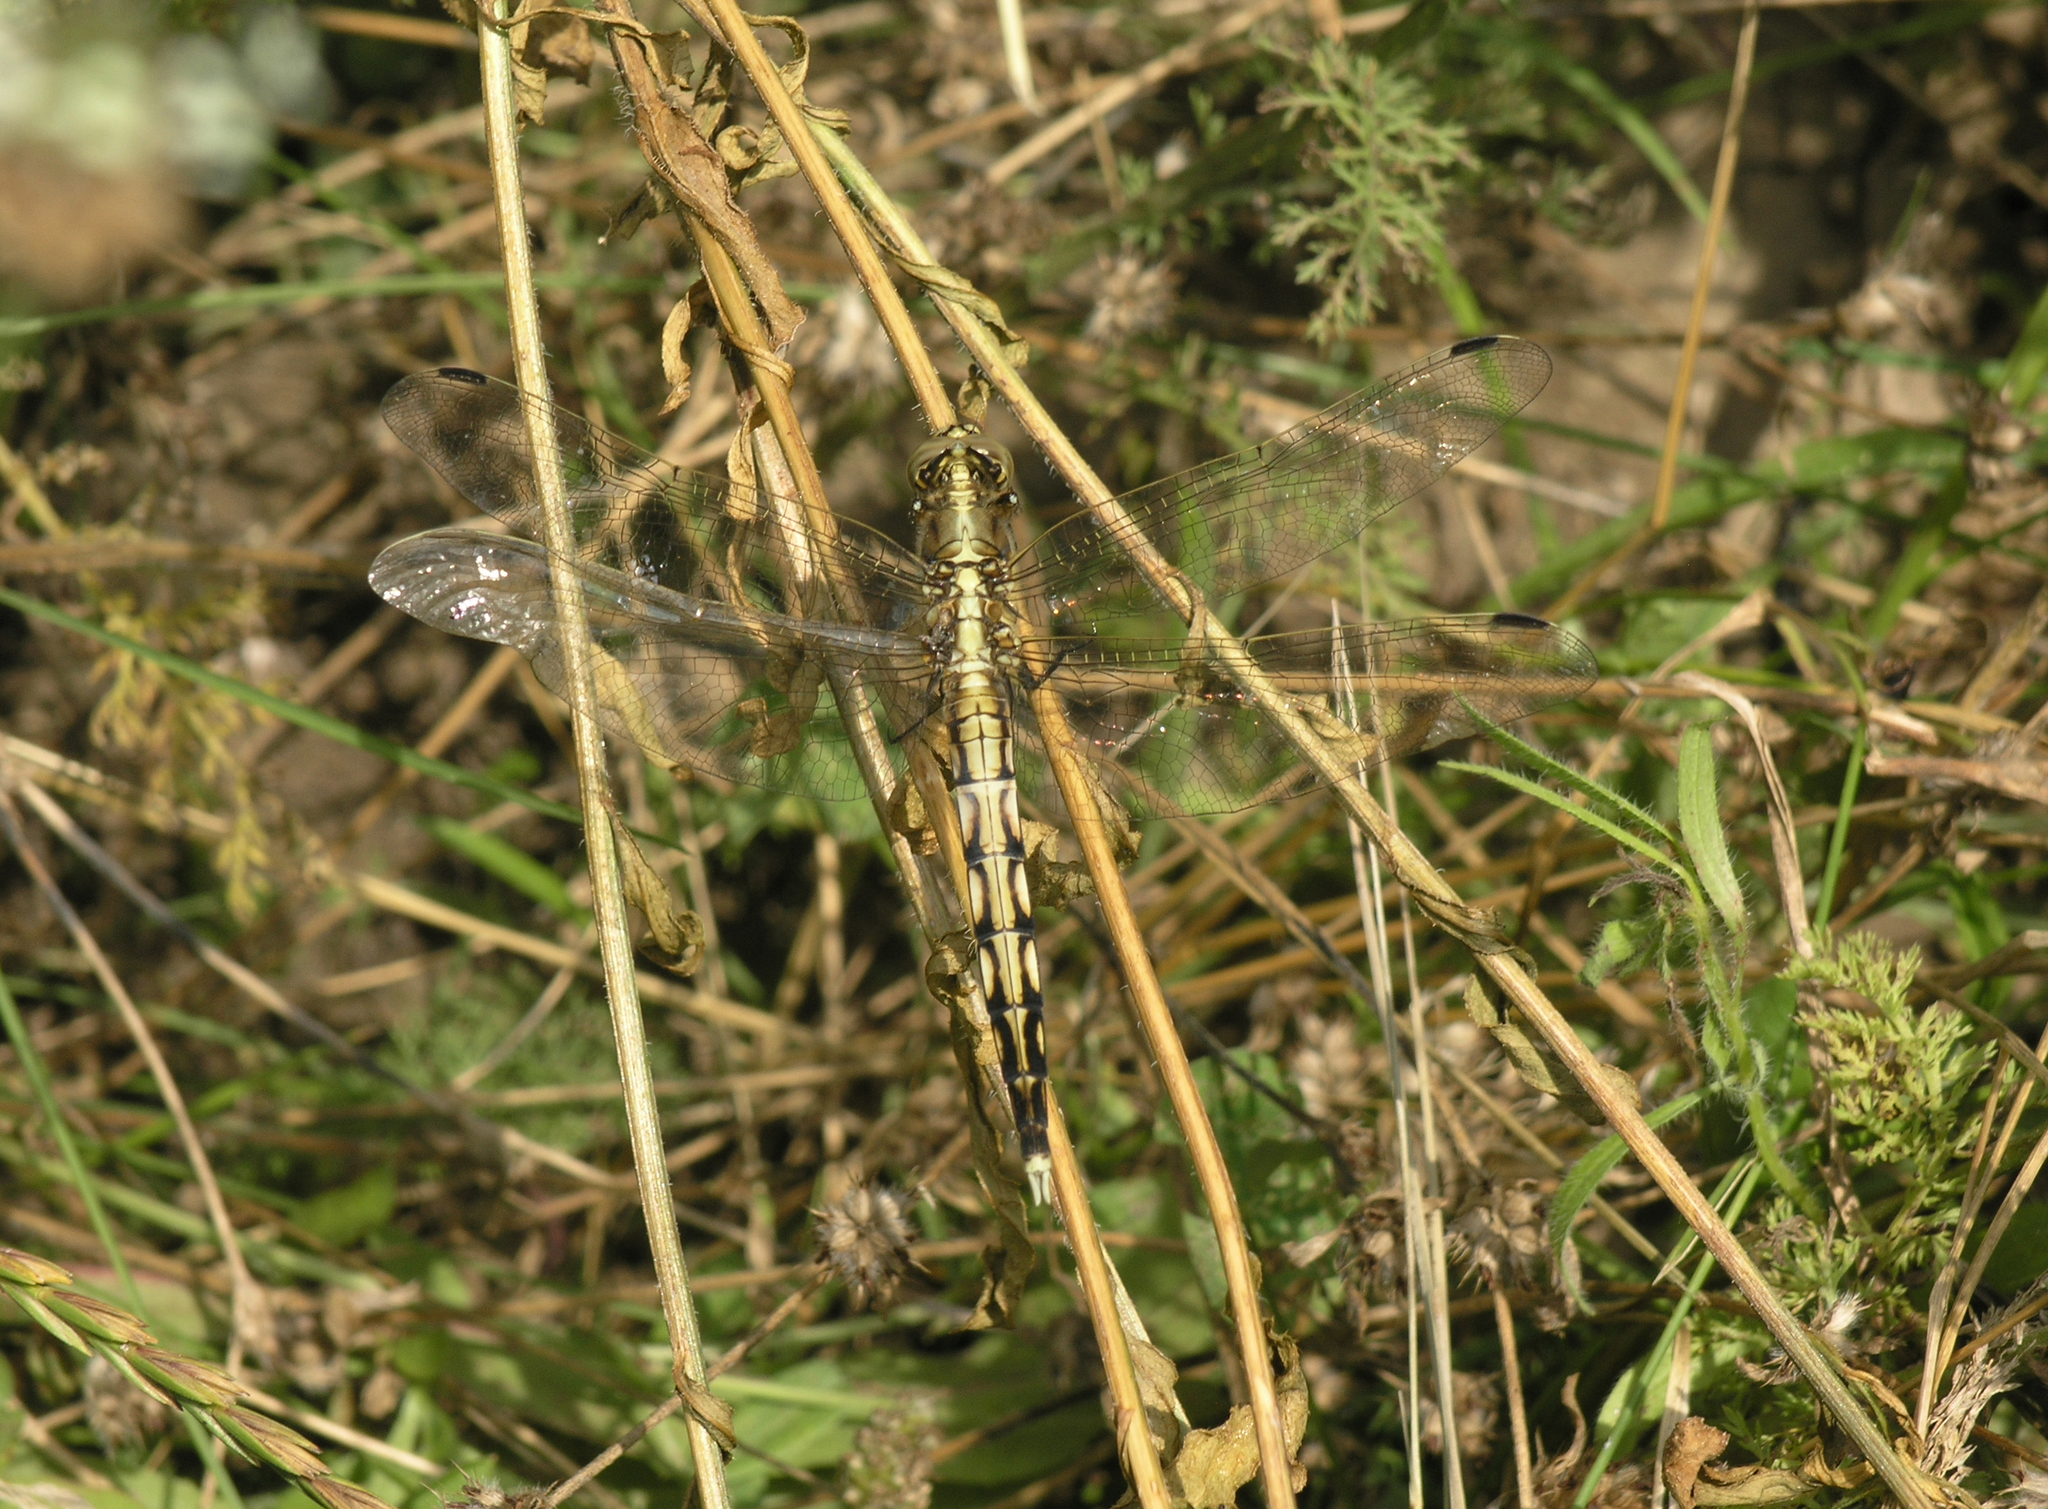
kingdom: Animalia
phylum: Arthropoda
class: Insecta
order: Odonata
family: Libellulidae
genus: Orthetrum
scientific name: Orthetrum albistylum
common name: White-tailed skimmer
